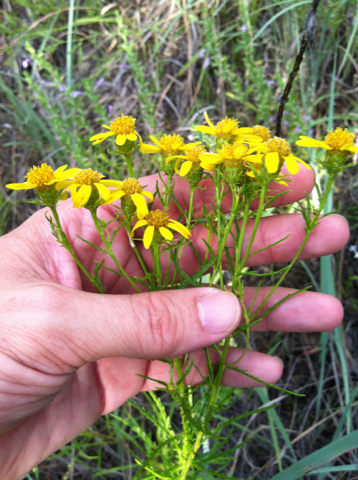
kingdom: Plantae
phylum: Tracheophyta
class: Magnoliopsida
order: Asterales
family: Asteraceae
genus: Dysodiopsis
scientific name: Dysodiopsis tagetoides
